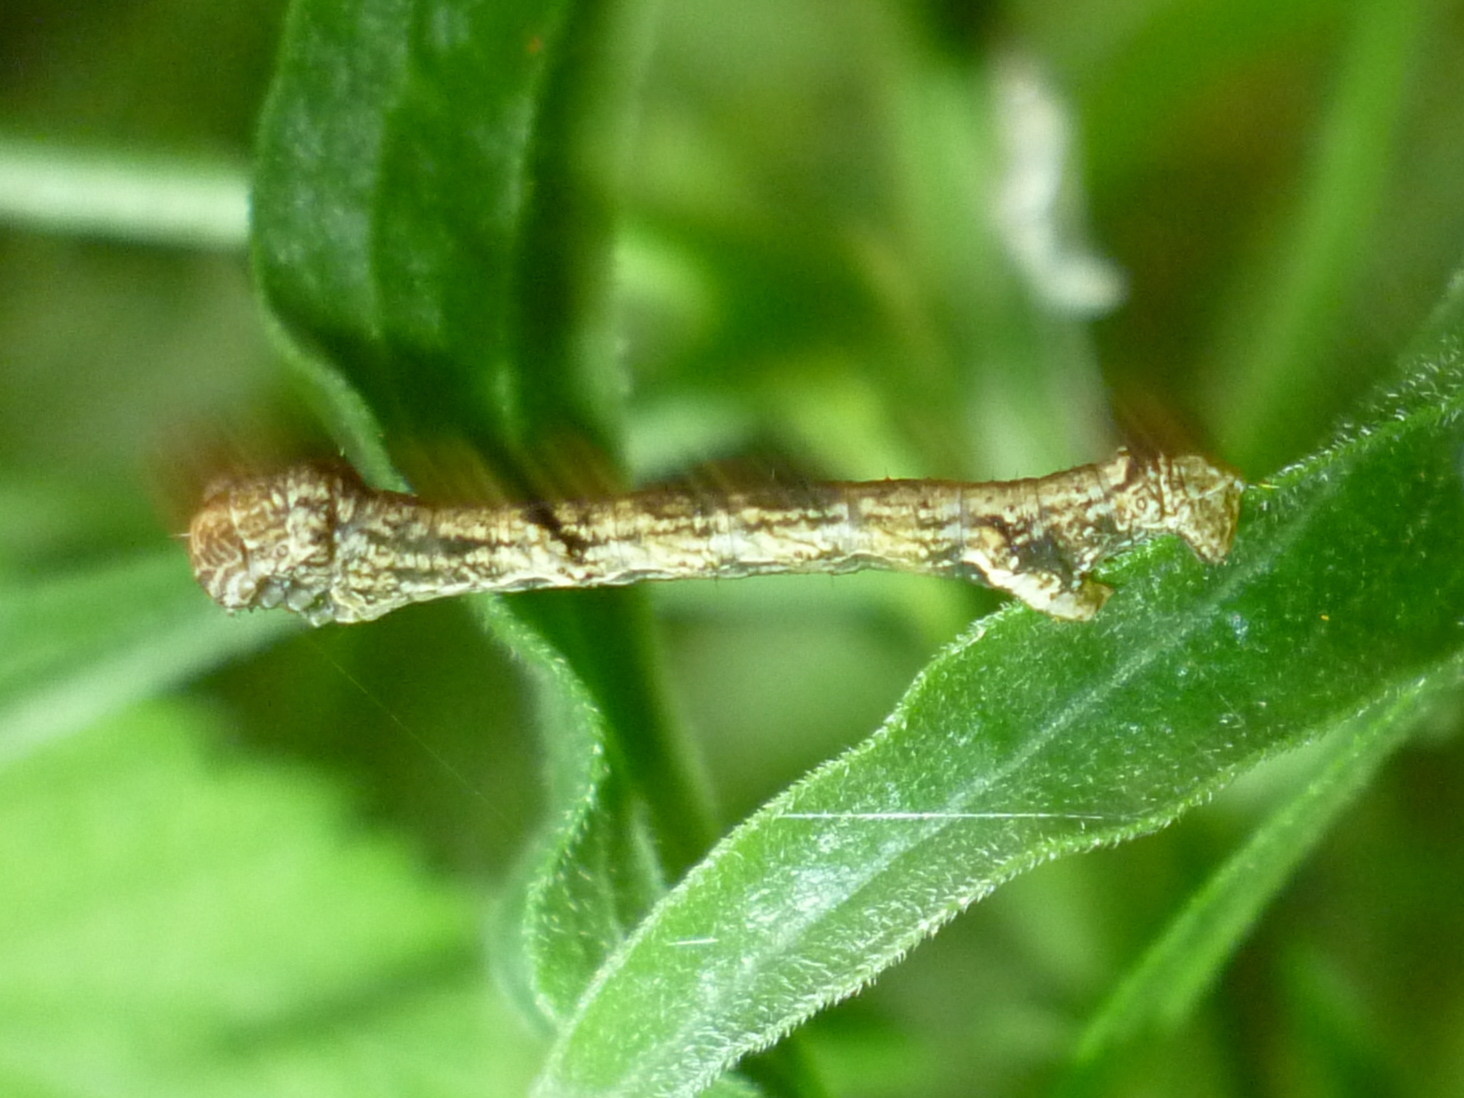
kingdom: Animalia
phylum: Arthropoda
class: Insecta
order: Lepidoptera
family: Geometridae
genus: Ectropis
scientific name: Ectropis crepuscularia
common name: Engrailed
